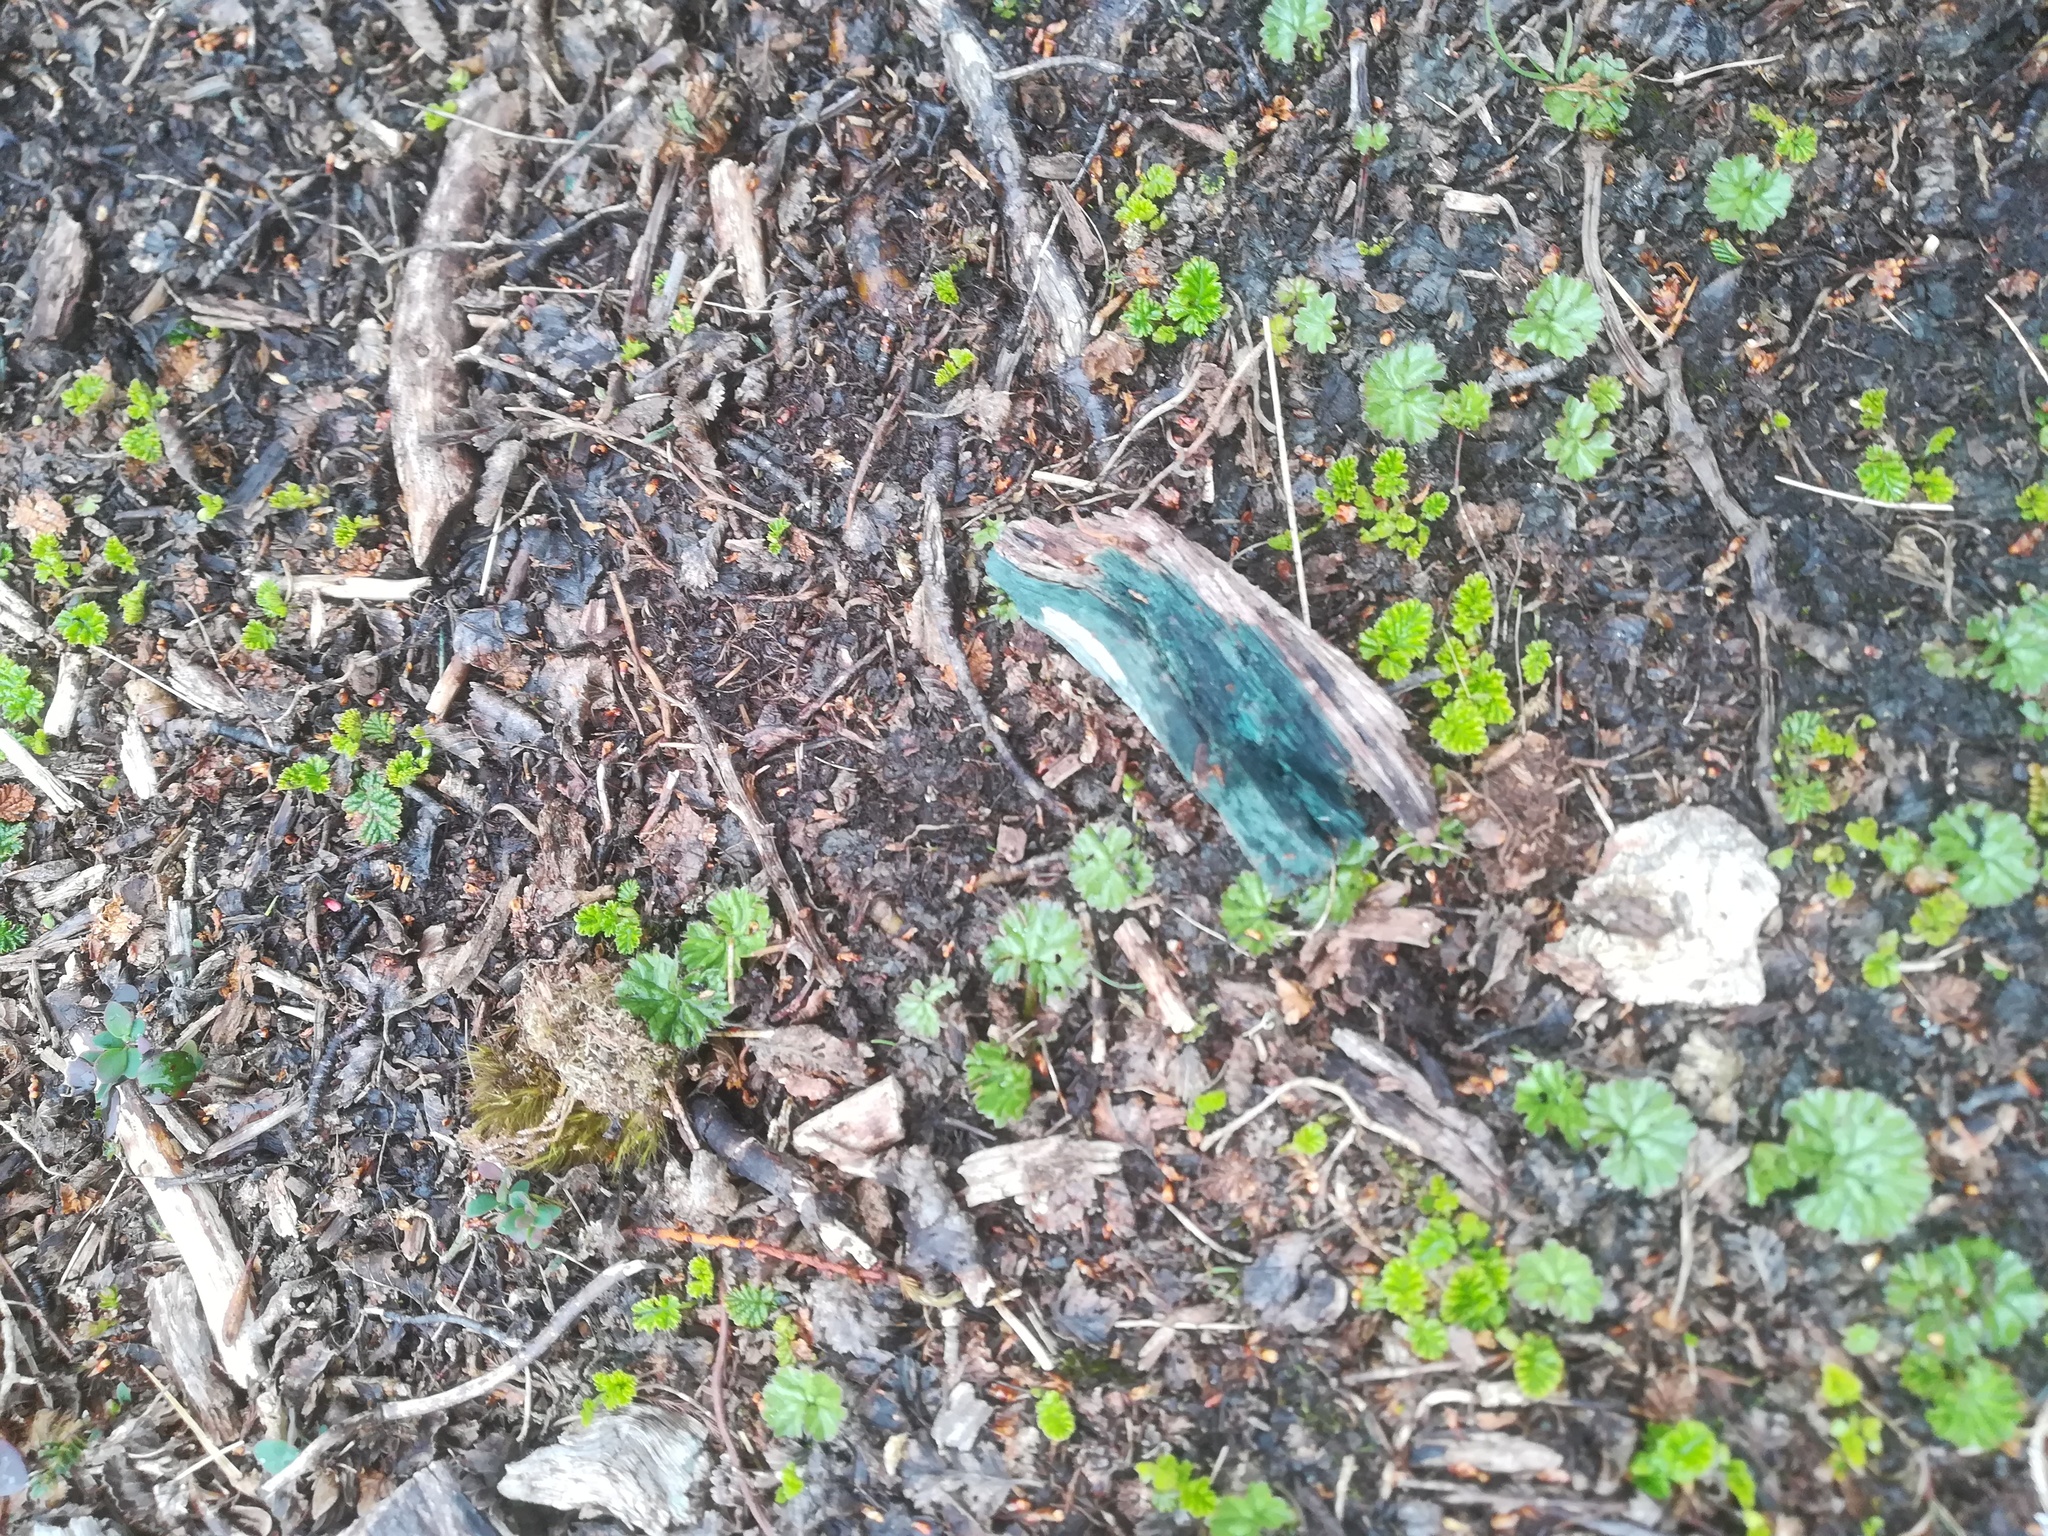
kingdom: Fungi
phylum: Ascomycota
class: Leotiomycetes
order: Helotiales
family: Chlorociboriaceae
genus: Chlorociboria
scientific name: Chlorociboria
